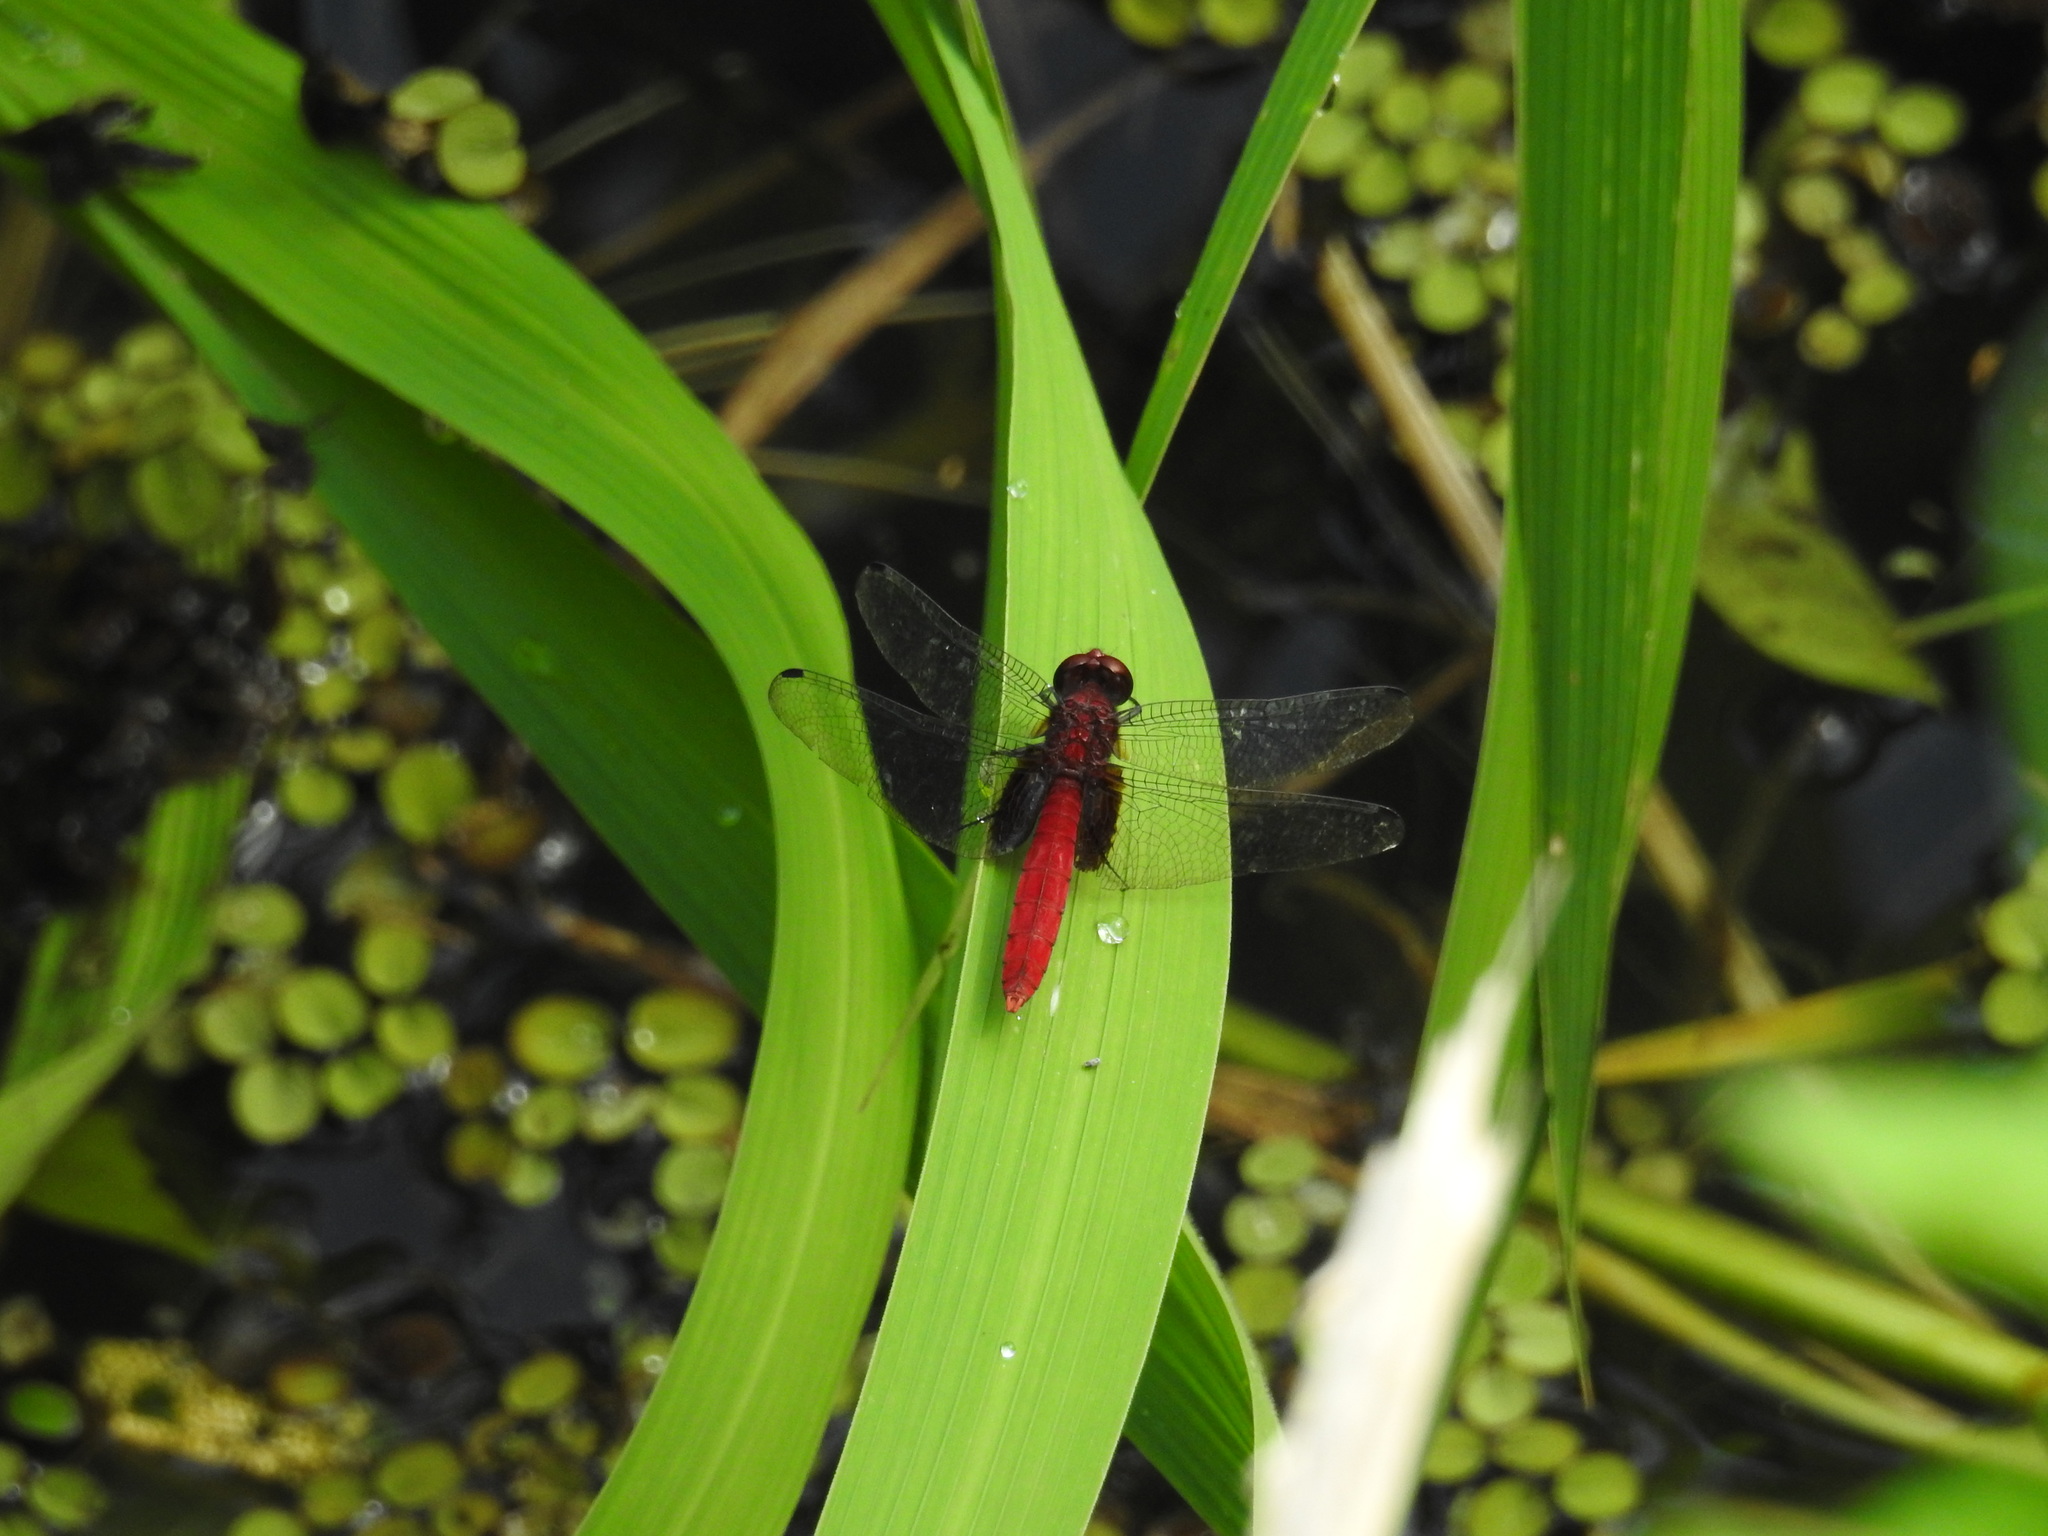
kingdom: Animalia
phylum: Arthropoda
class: Insecta
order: Odonata
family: Libellulidae
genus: Erythemis
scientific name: Erythemis mithroides
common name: Claret pondhawk
